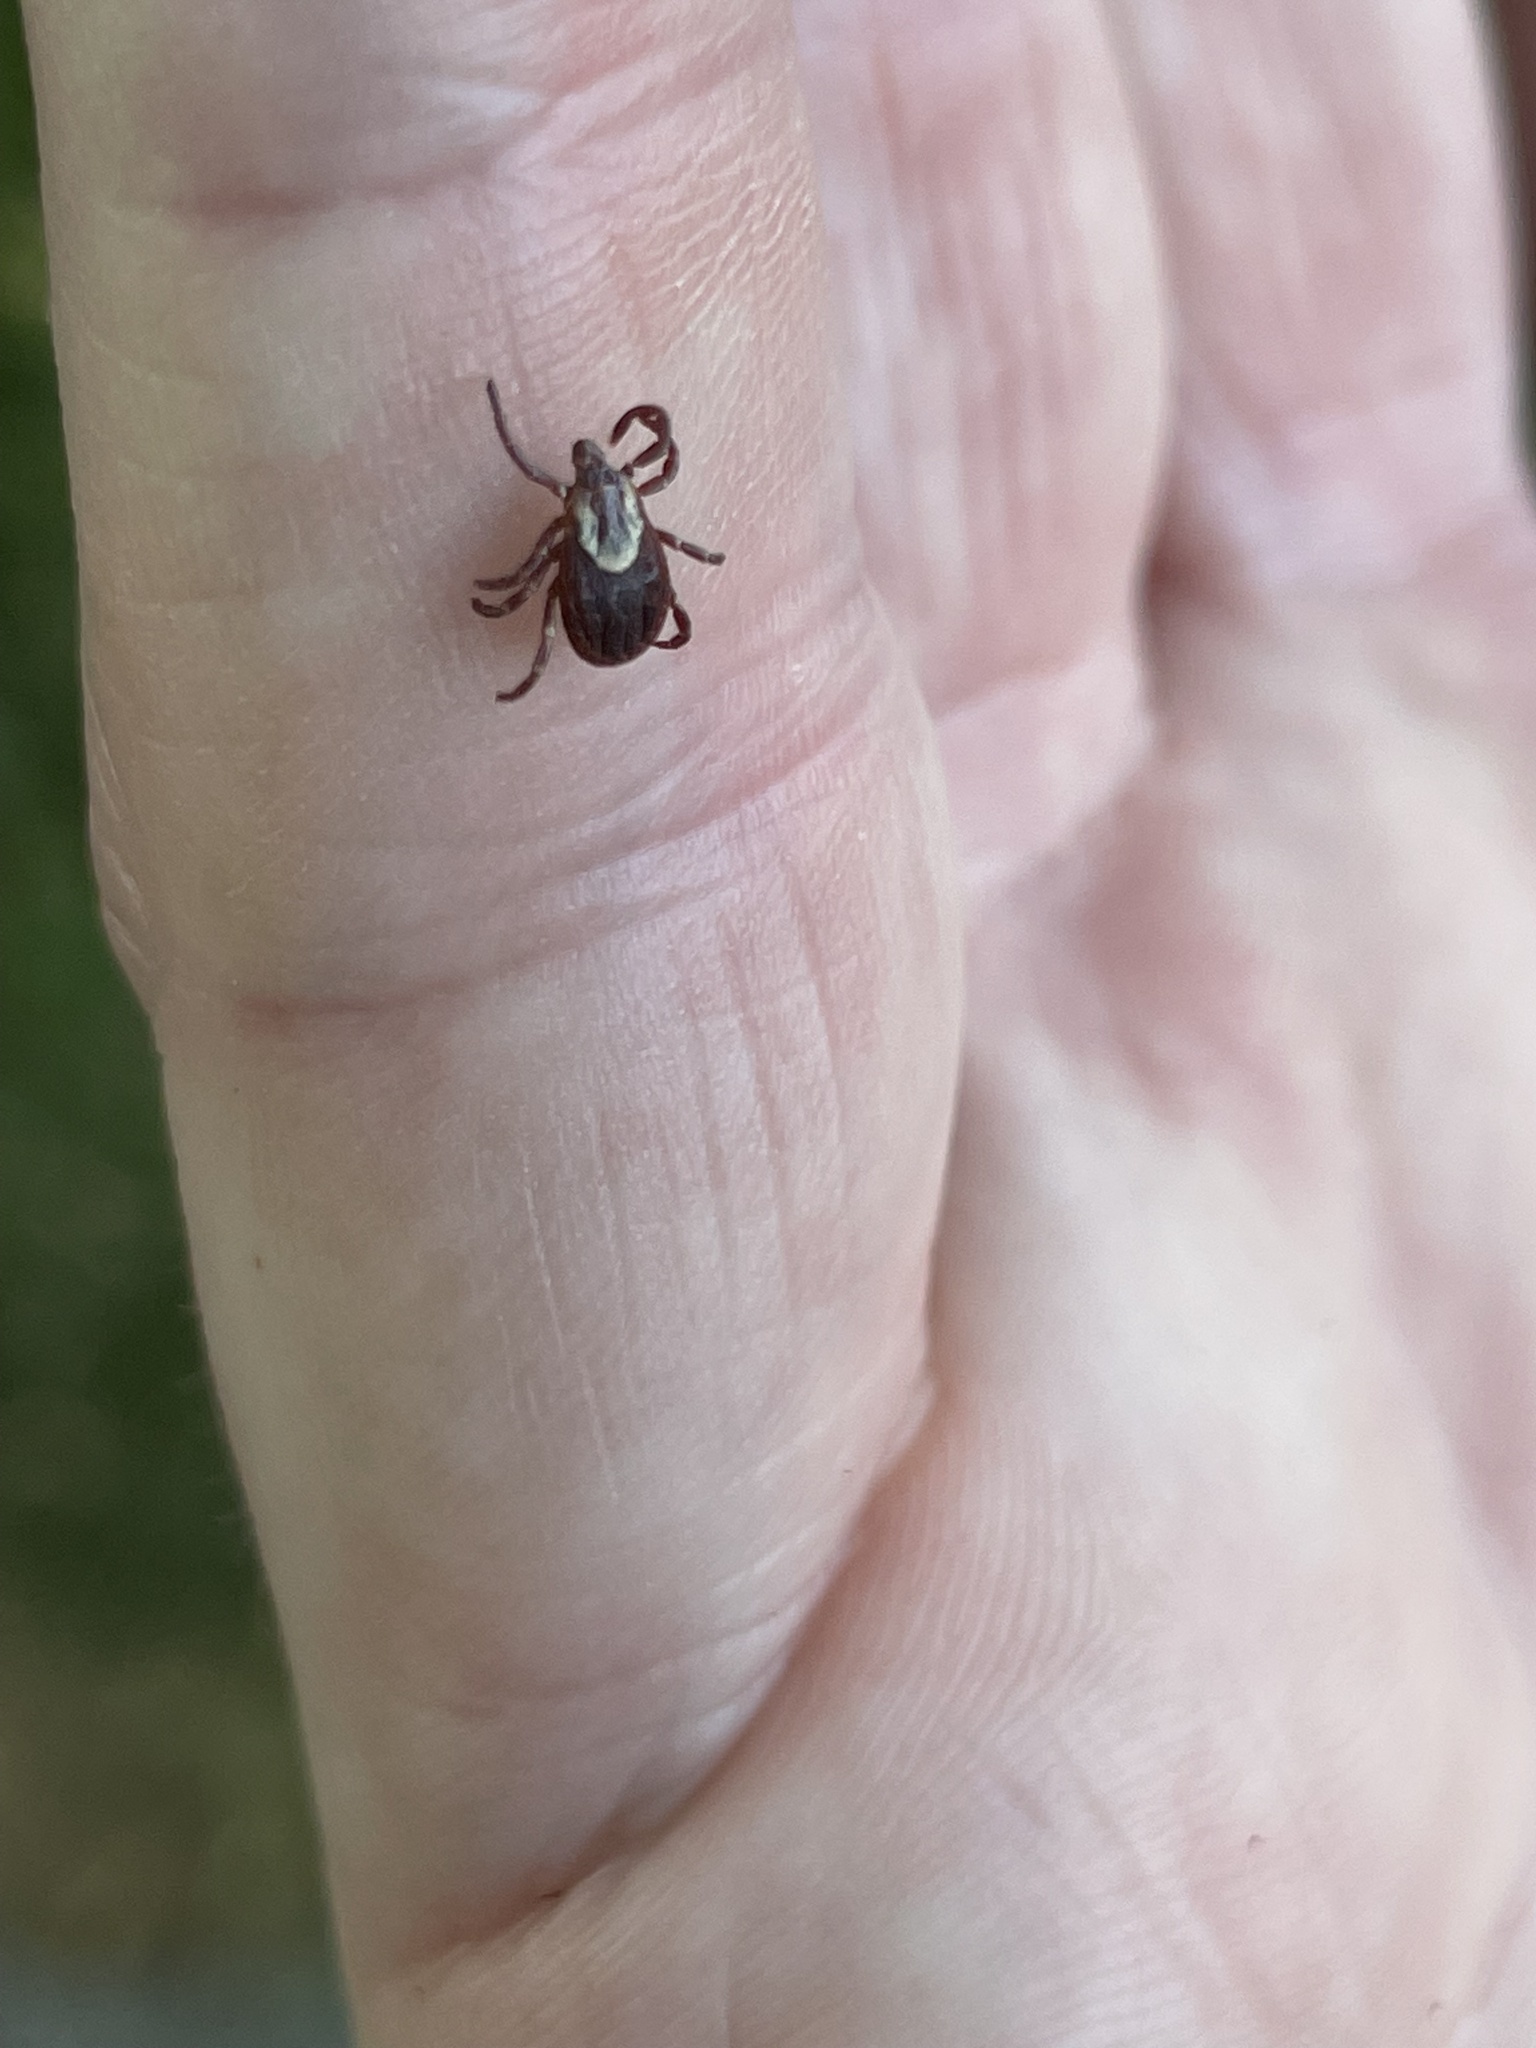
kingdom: Animalia
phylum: Arthropoda
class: Arachnida
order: Ixodida
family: Ixodidae
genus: Dermacentor
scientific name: Dermacentor variabilis
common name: American dog tick
